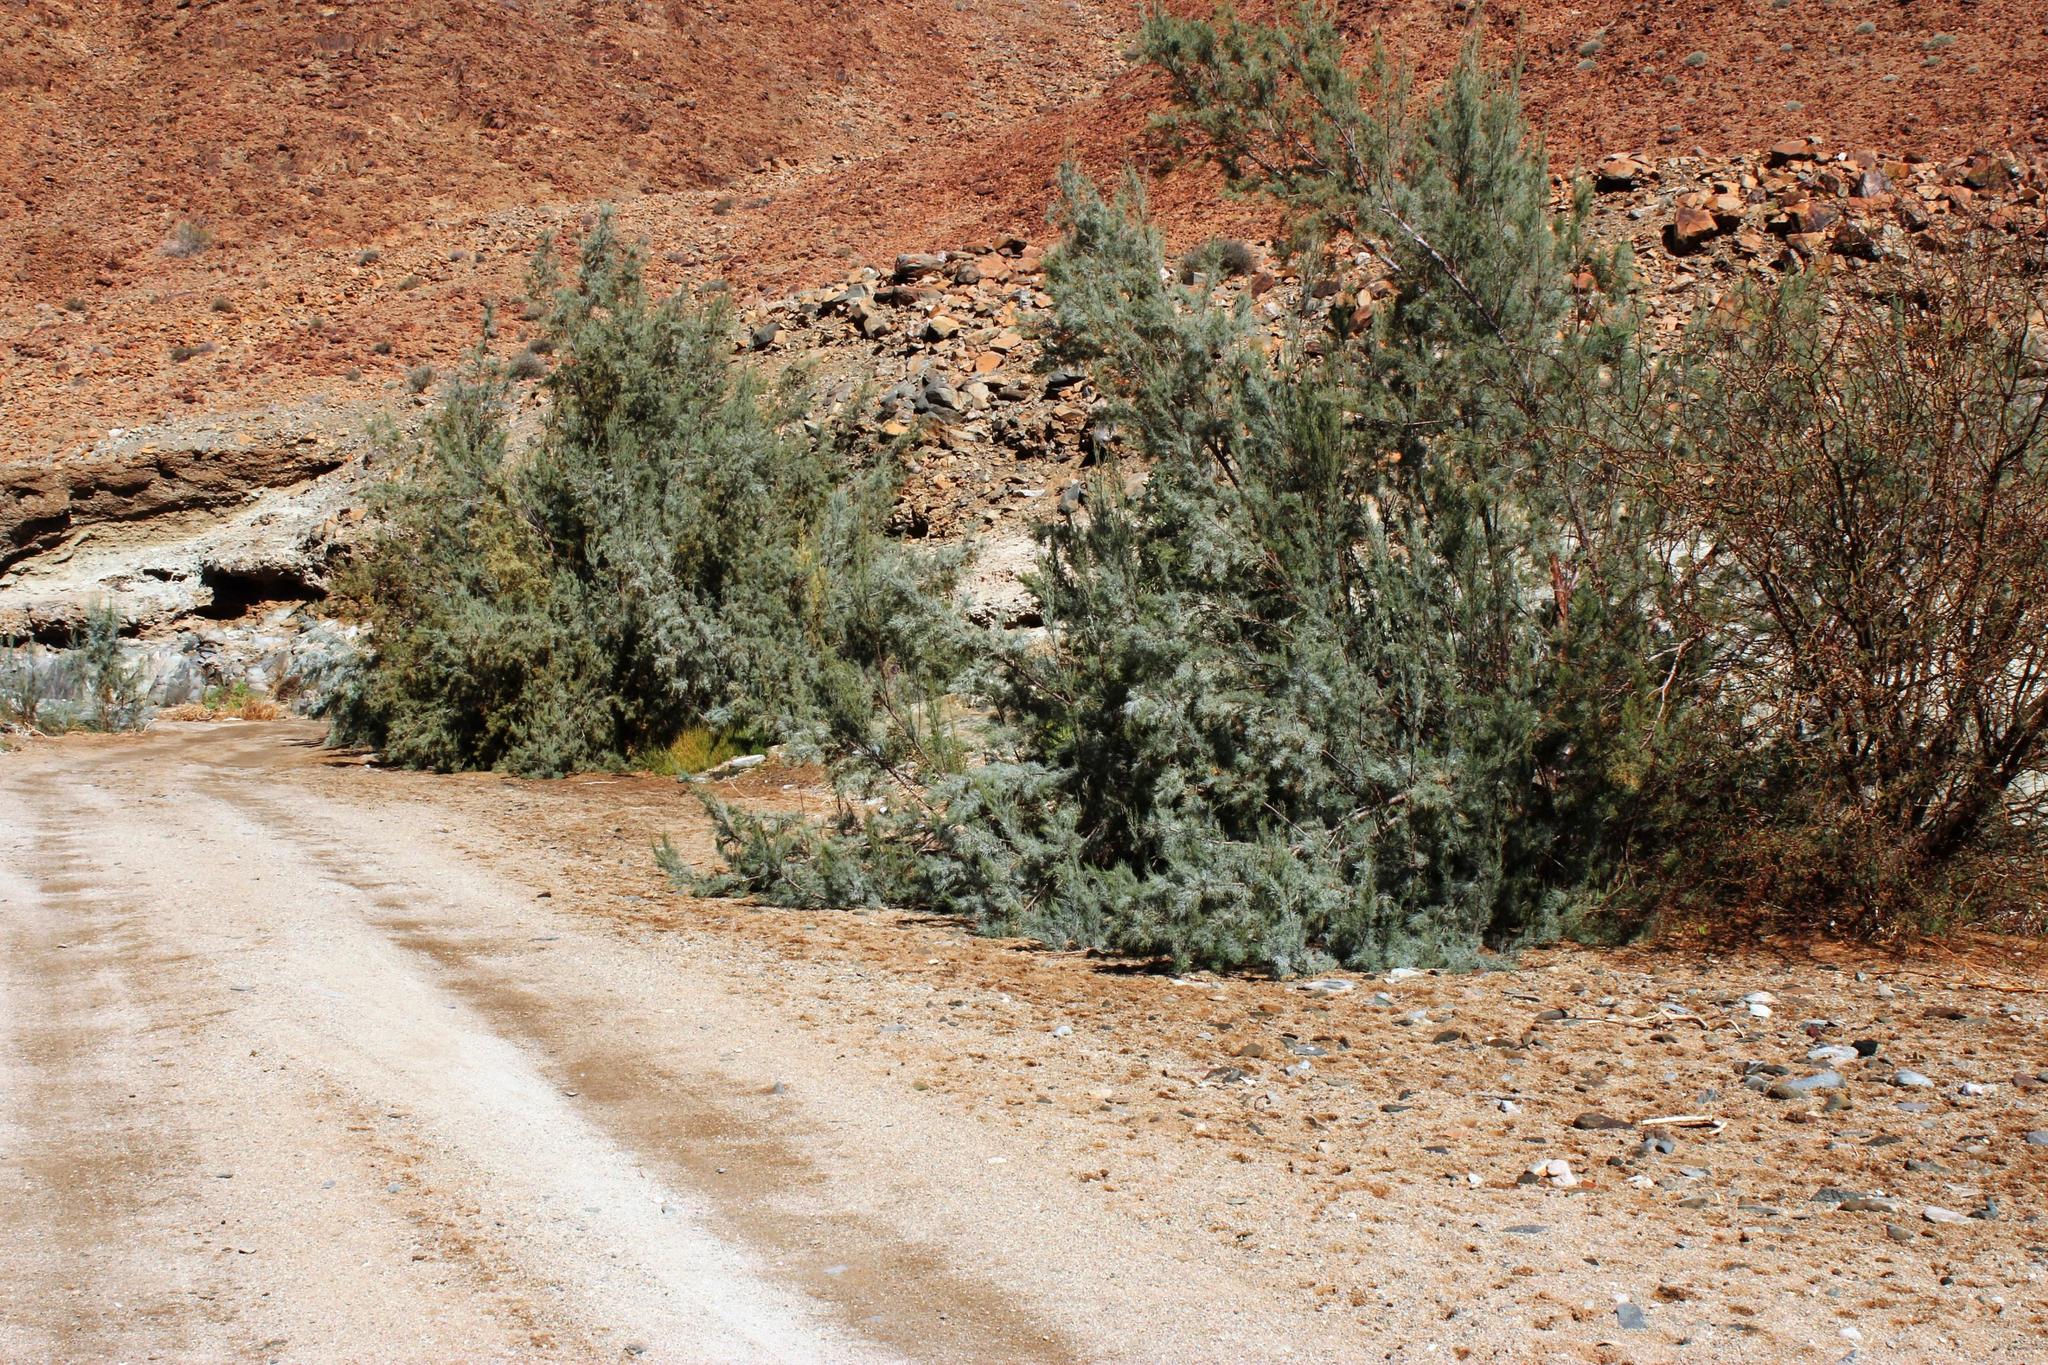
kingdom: Plantae
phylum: Tracheophyta
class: Magnoliopsida
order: Caryophyllales
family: Tamaricaceae
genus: Tamarix
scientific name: Tamarix usneoides
